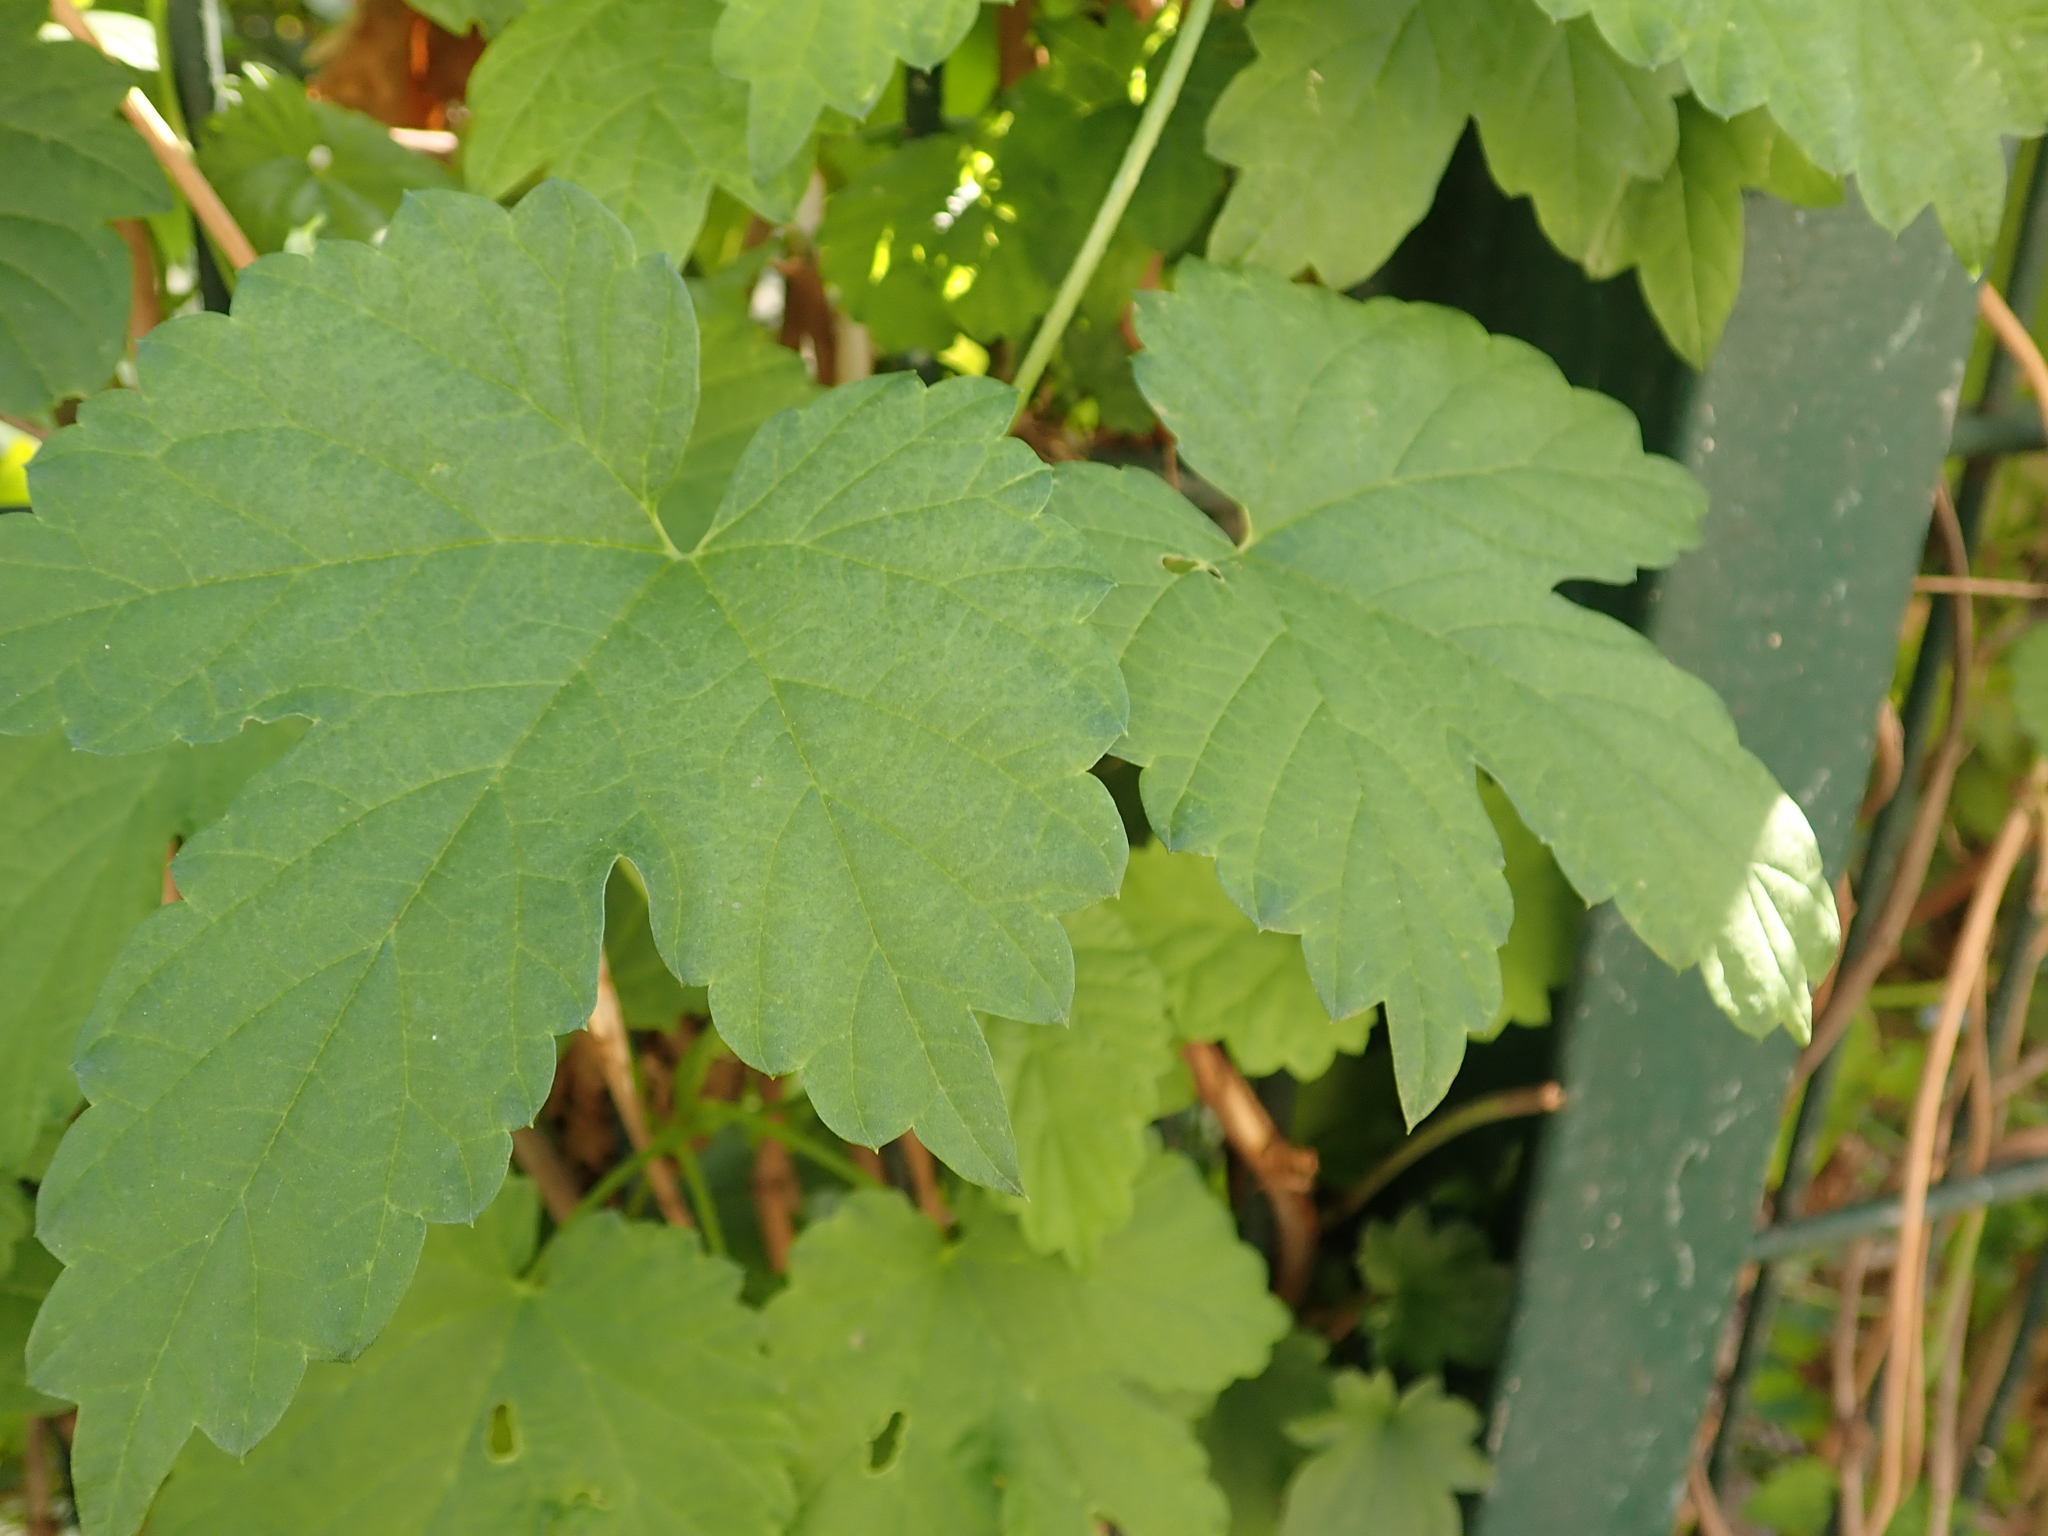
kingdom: Plantae
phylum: Tracheophyta
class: Magnoliopsida
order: Rosales
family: Cannabaceae
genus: Humulus
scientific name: Humulus lupulus
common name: Hop
